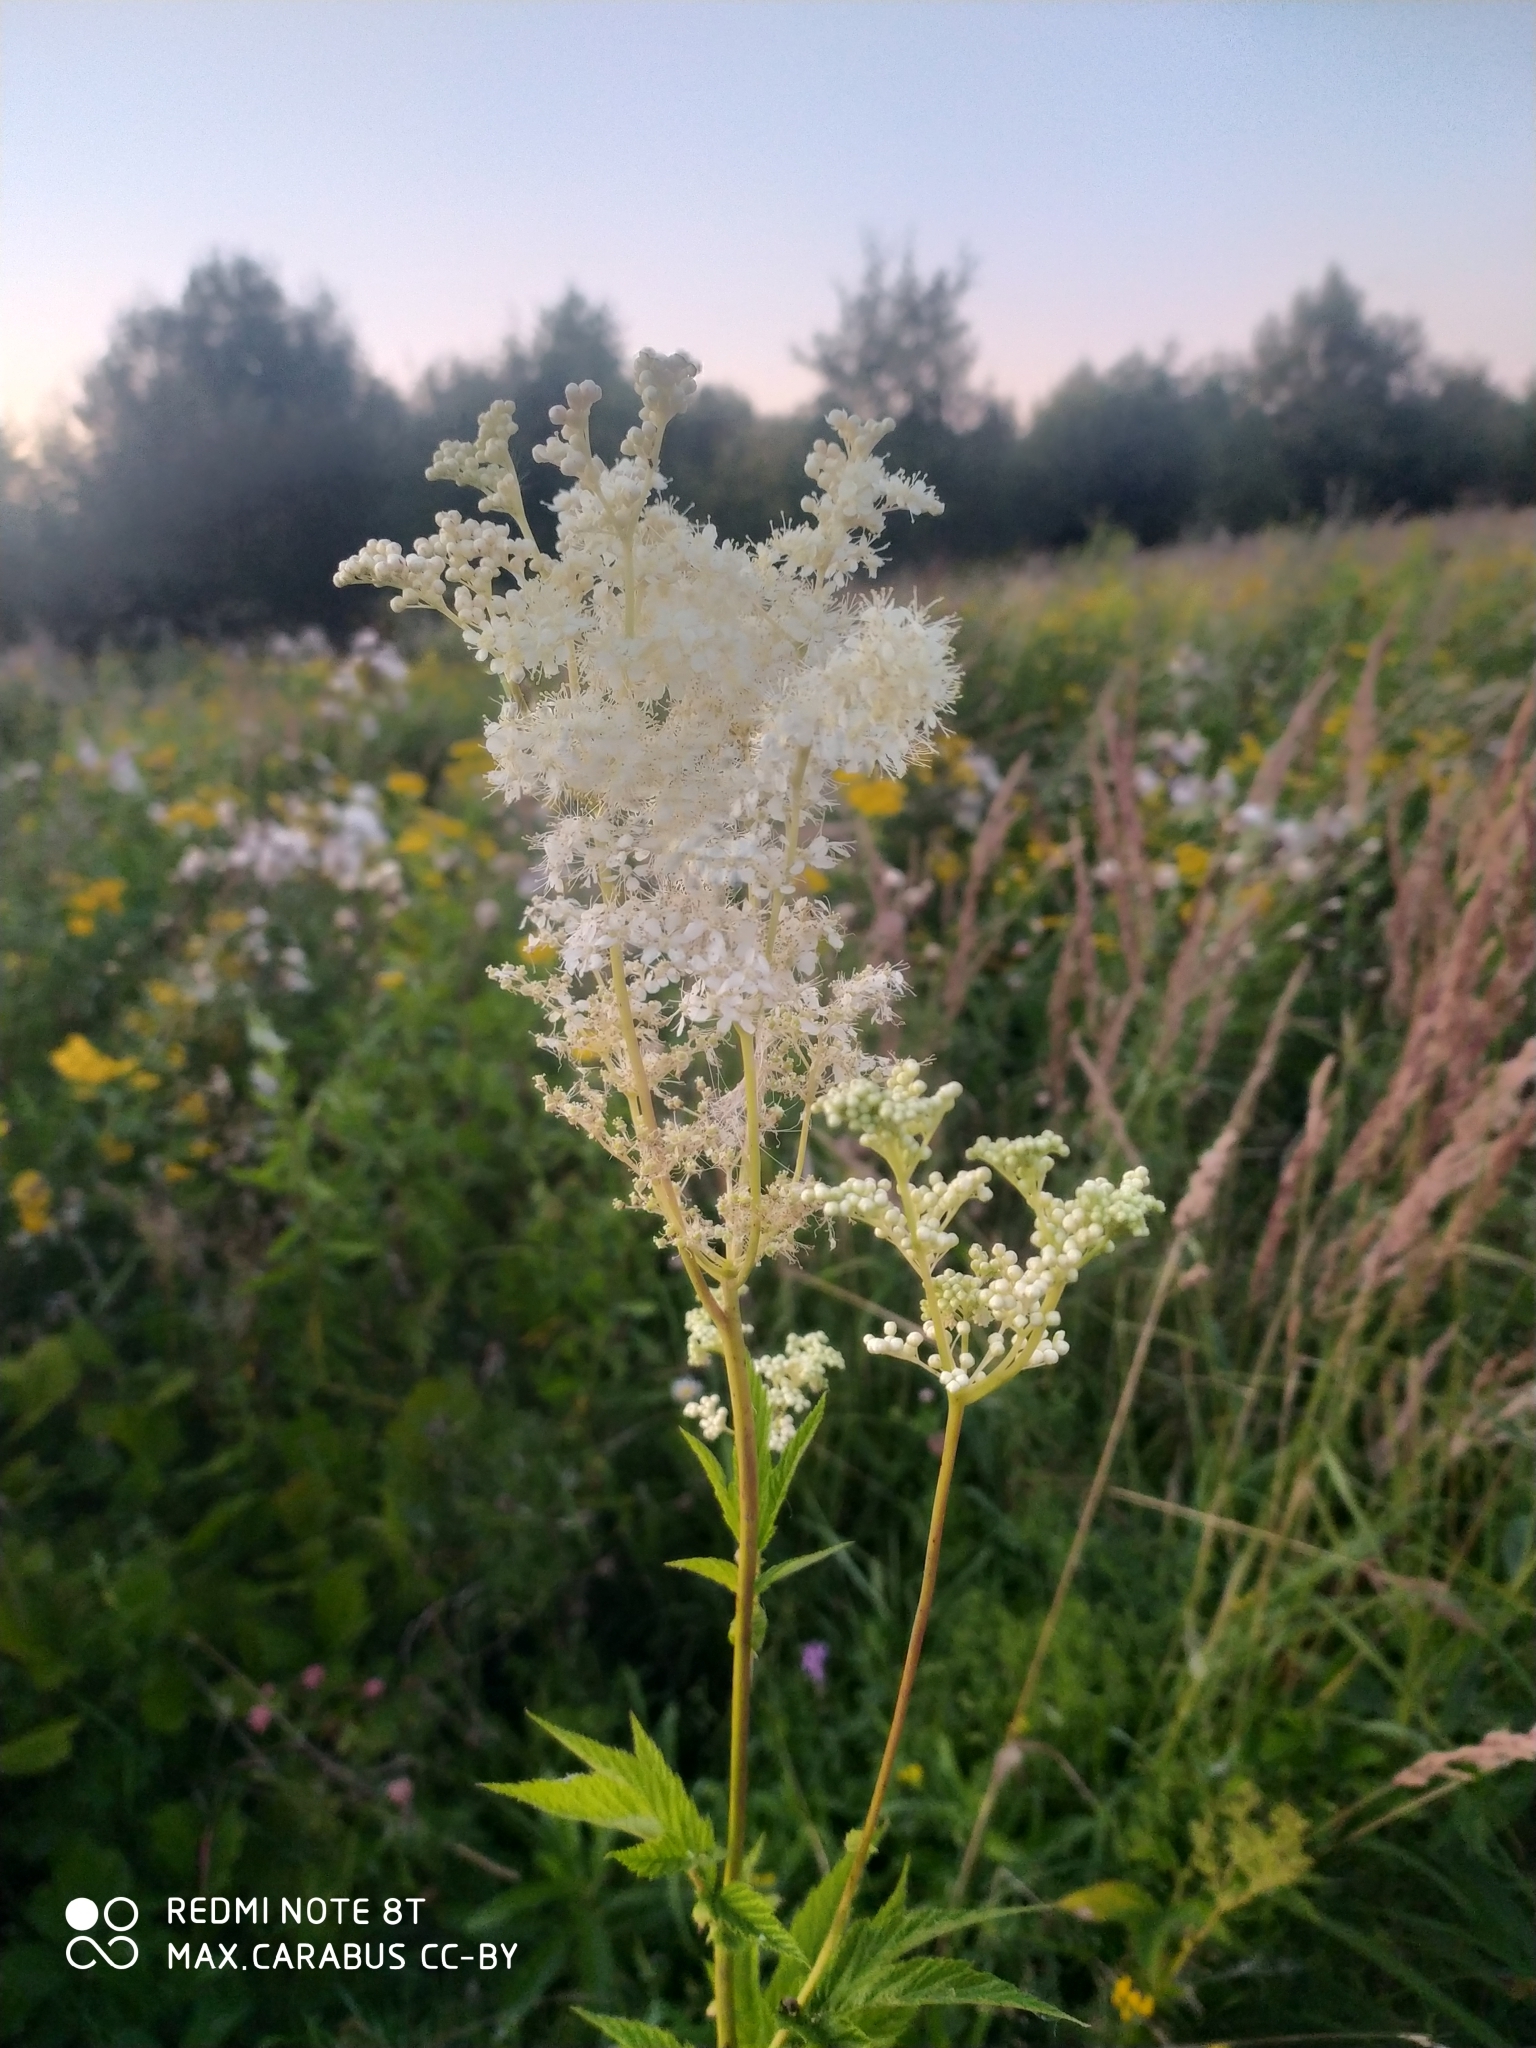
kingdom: Plantae
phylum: Tracheophyta
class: Magnoliopsida
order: Rosales
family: Rosaceae
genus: Filipendula
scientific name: Filipendula ulmaria
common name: Meadowsweet
